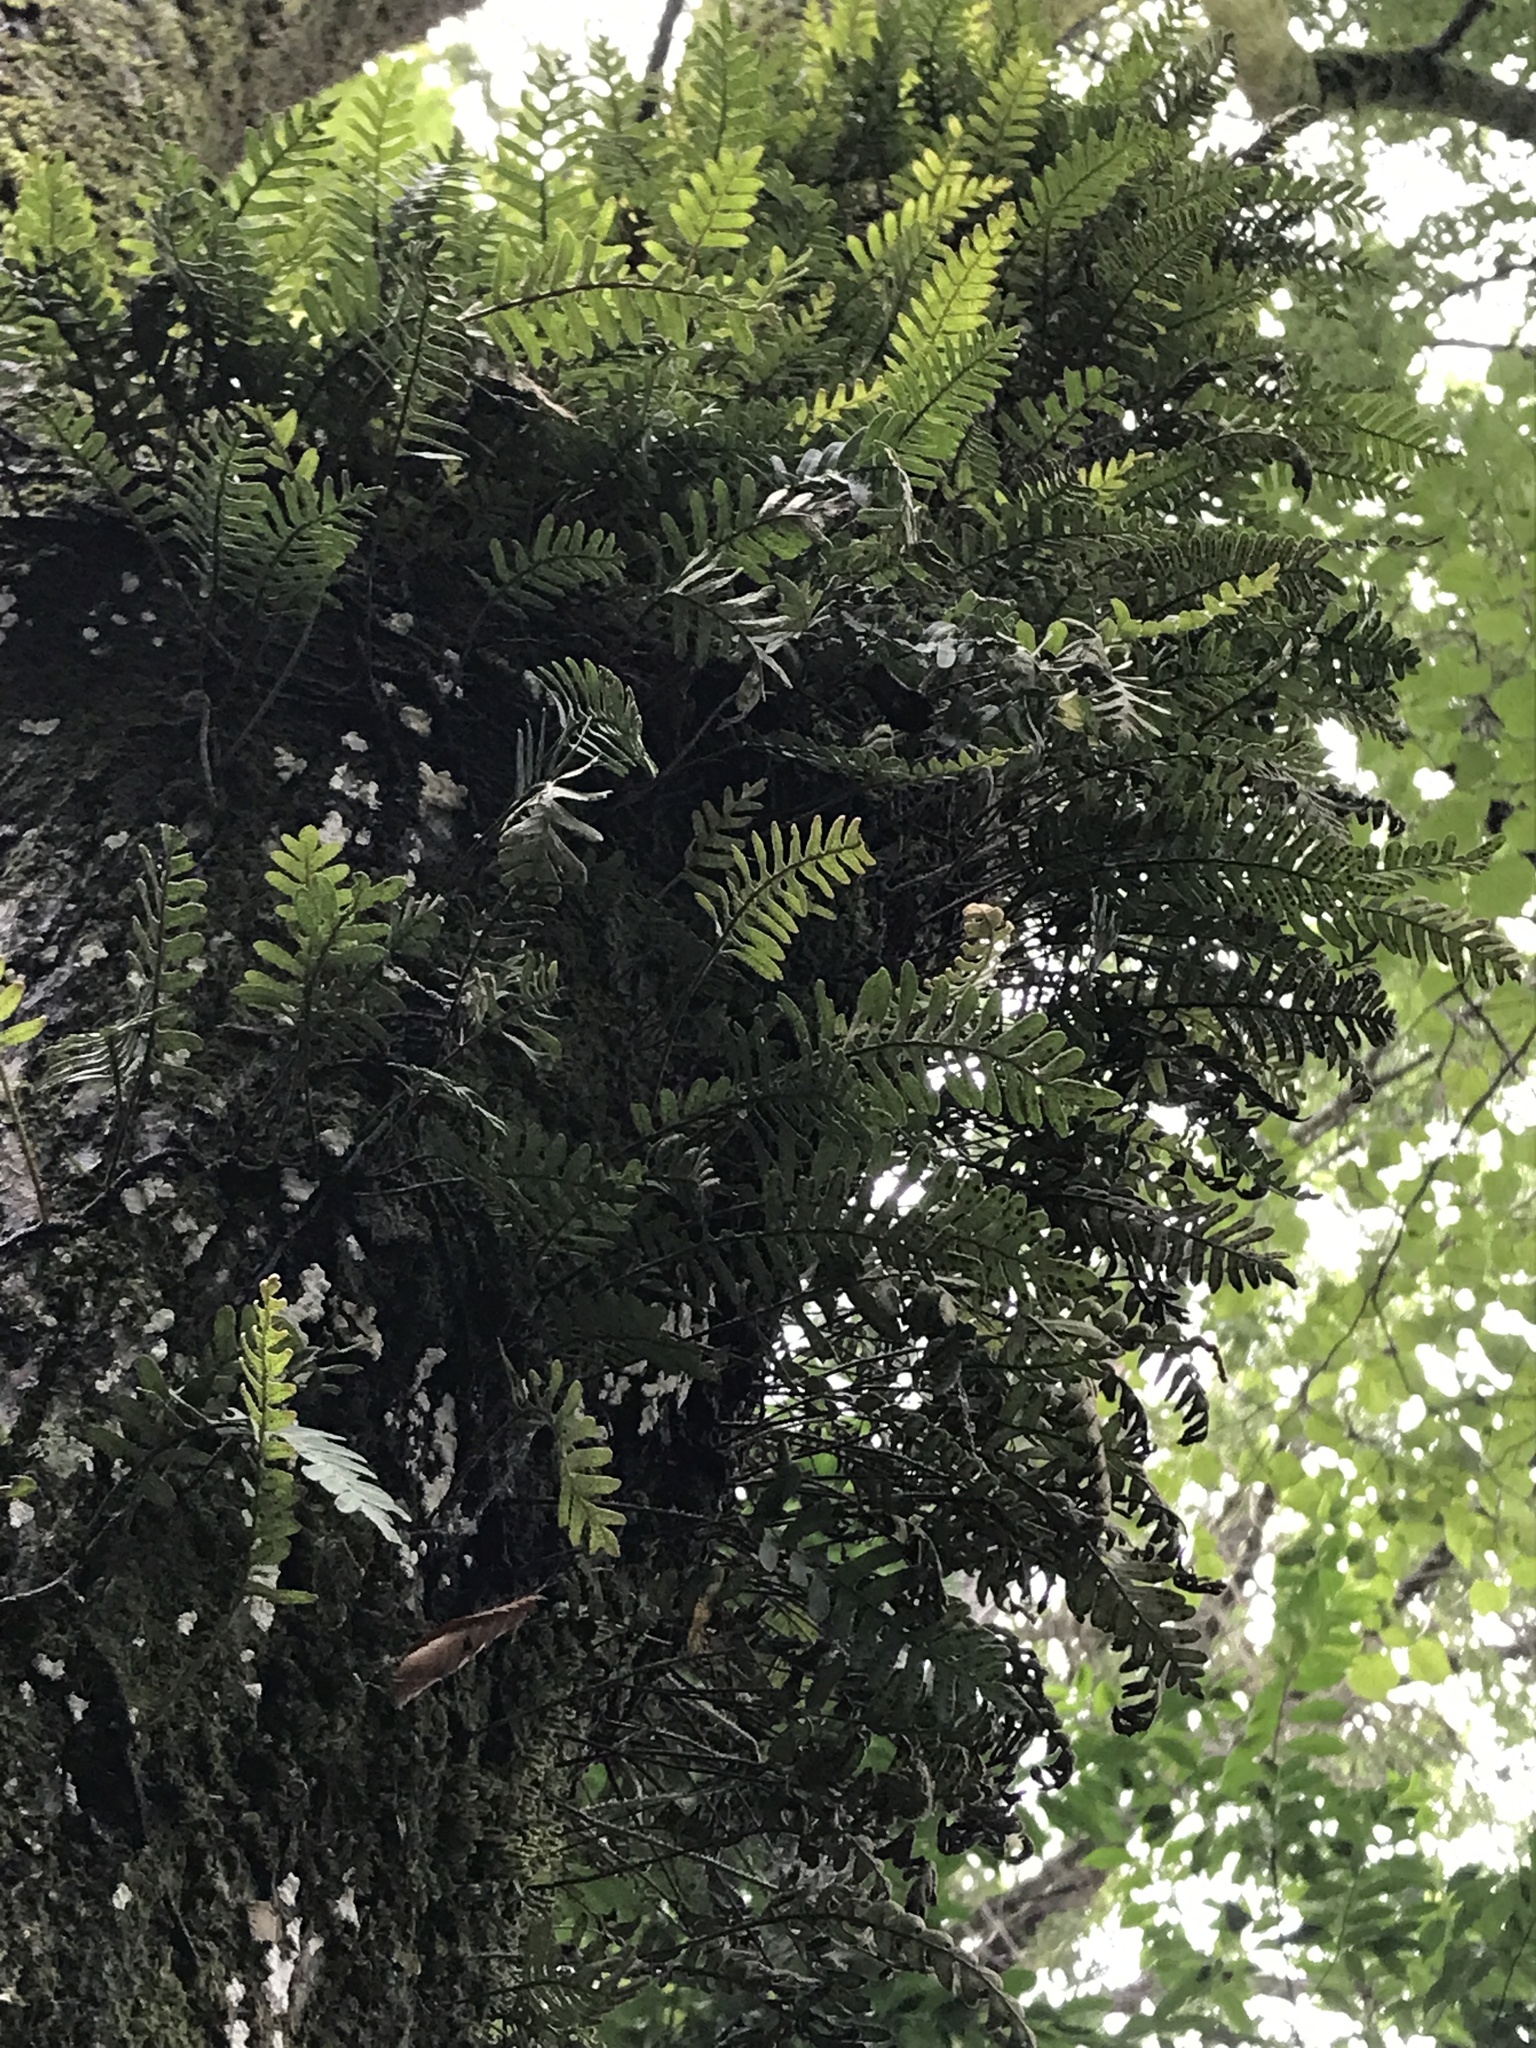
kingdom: Plantae
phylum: Tracheophyta
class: Polypodiopsida
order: Polypodiales
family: Polypodiaceae
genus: Pleopeltis
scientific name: Pleopeltis michauxiana
